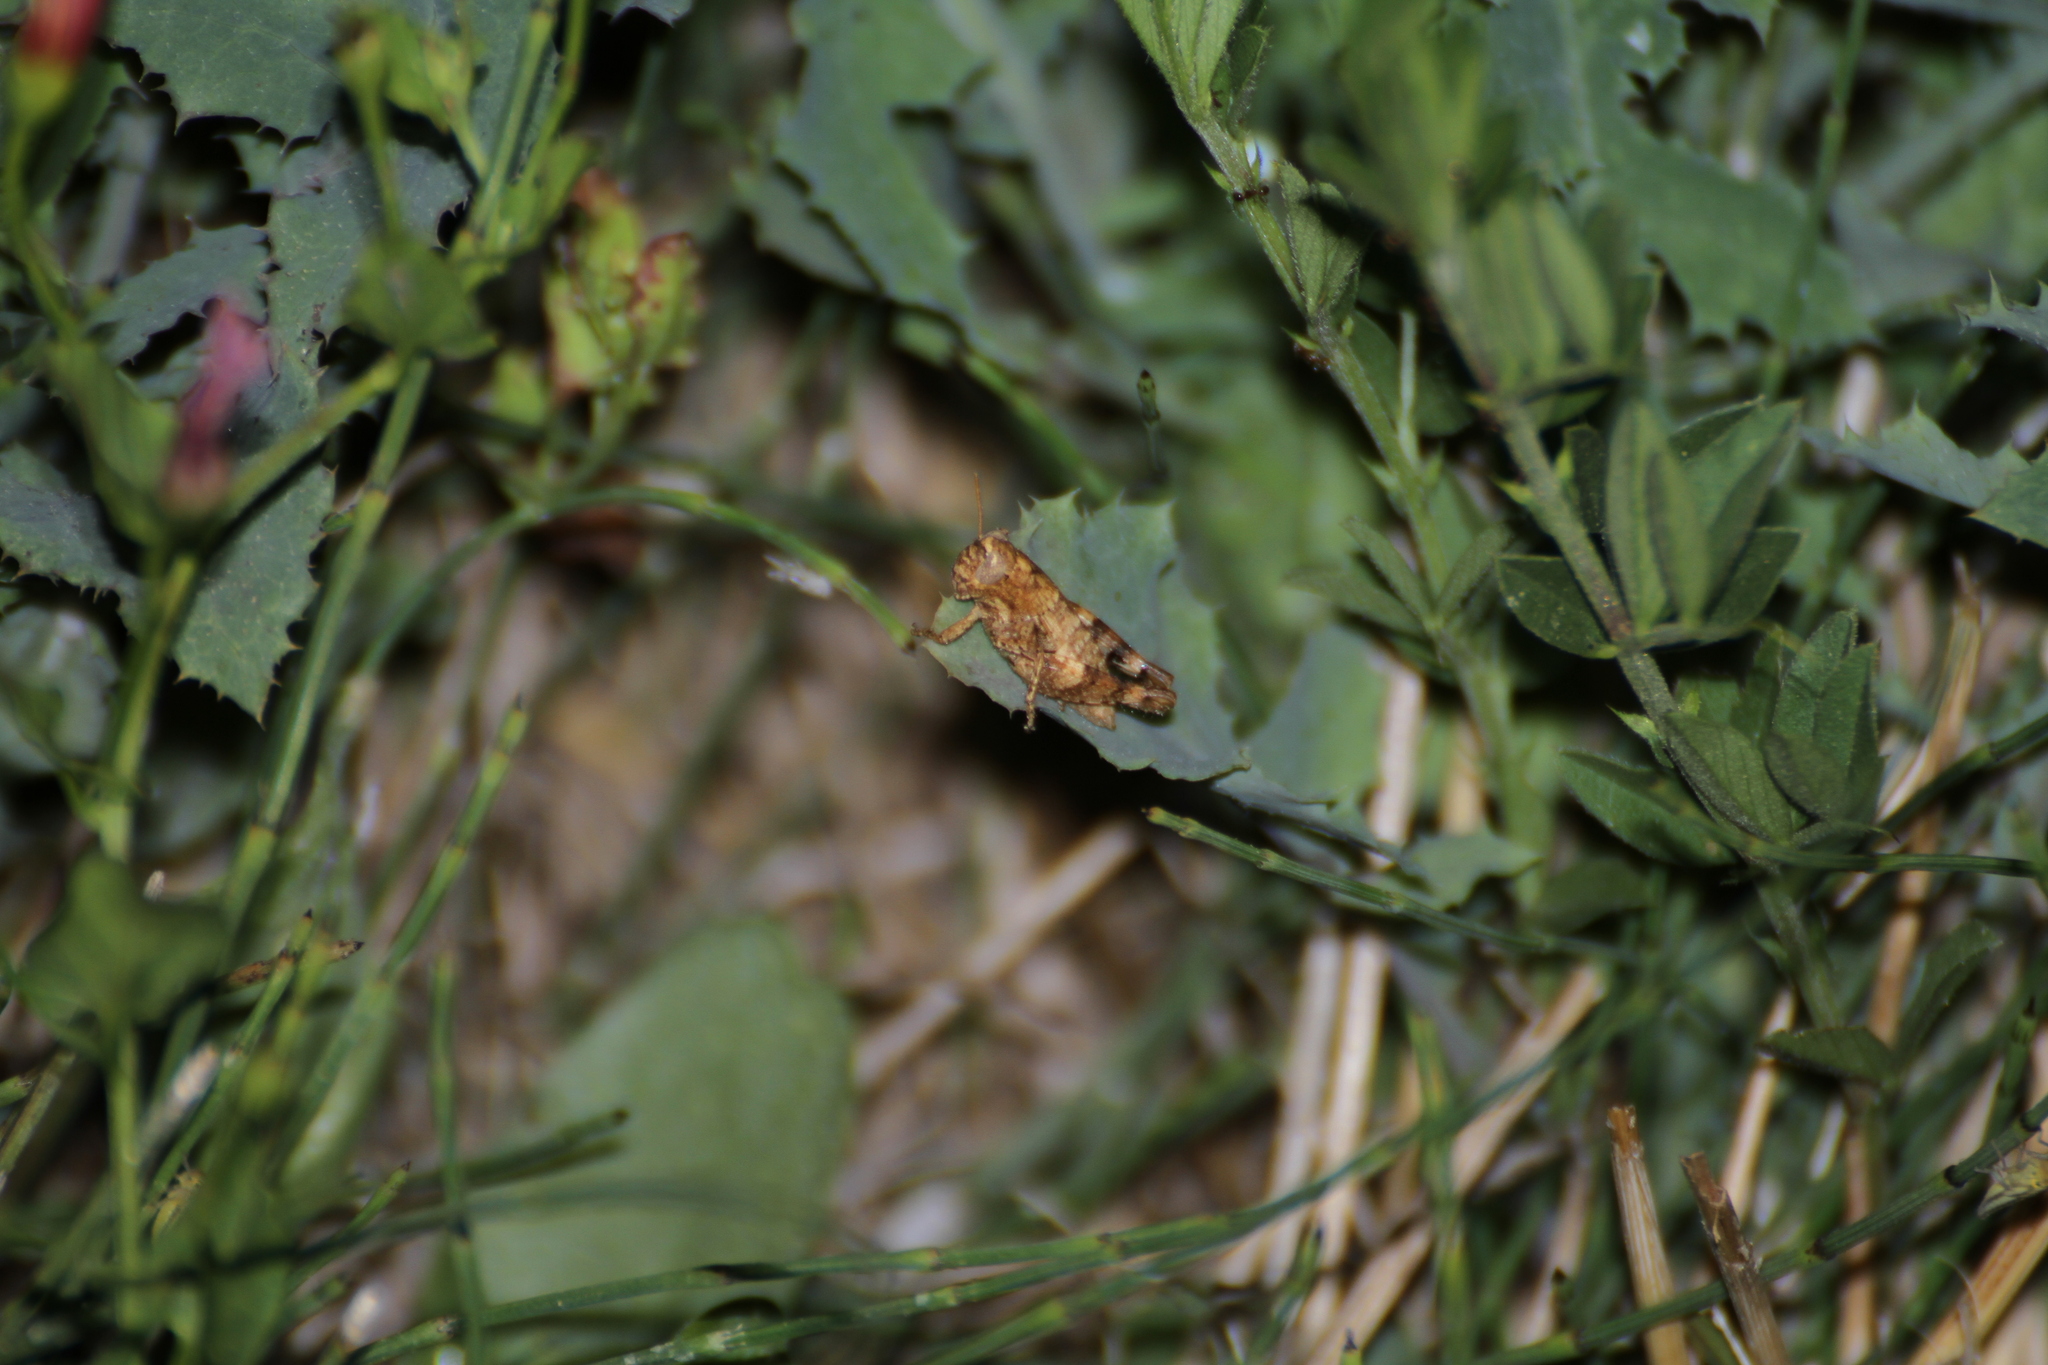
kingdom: Animalia
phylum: Arthropoda
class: Insecta
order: Orthoptera
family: Acrididae
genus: Pezotettix
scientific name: Pezotettix giornae
